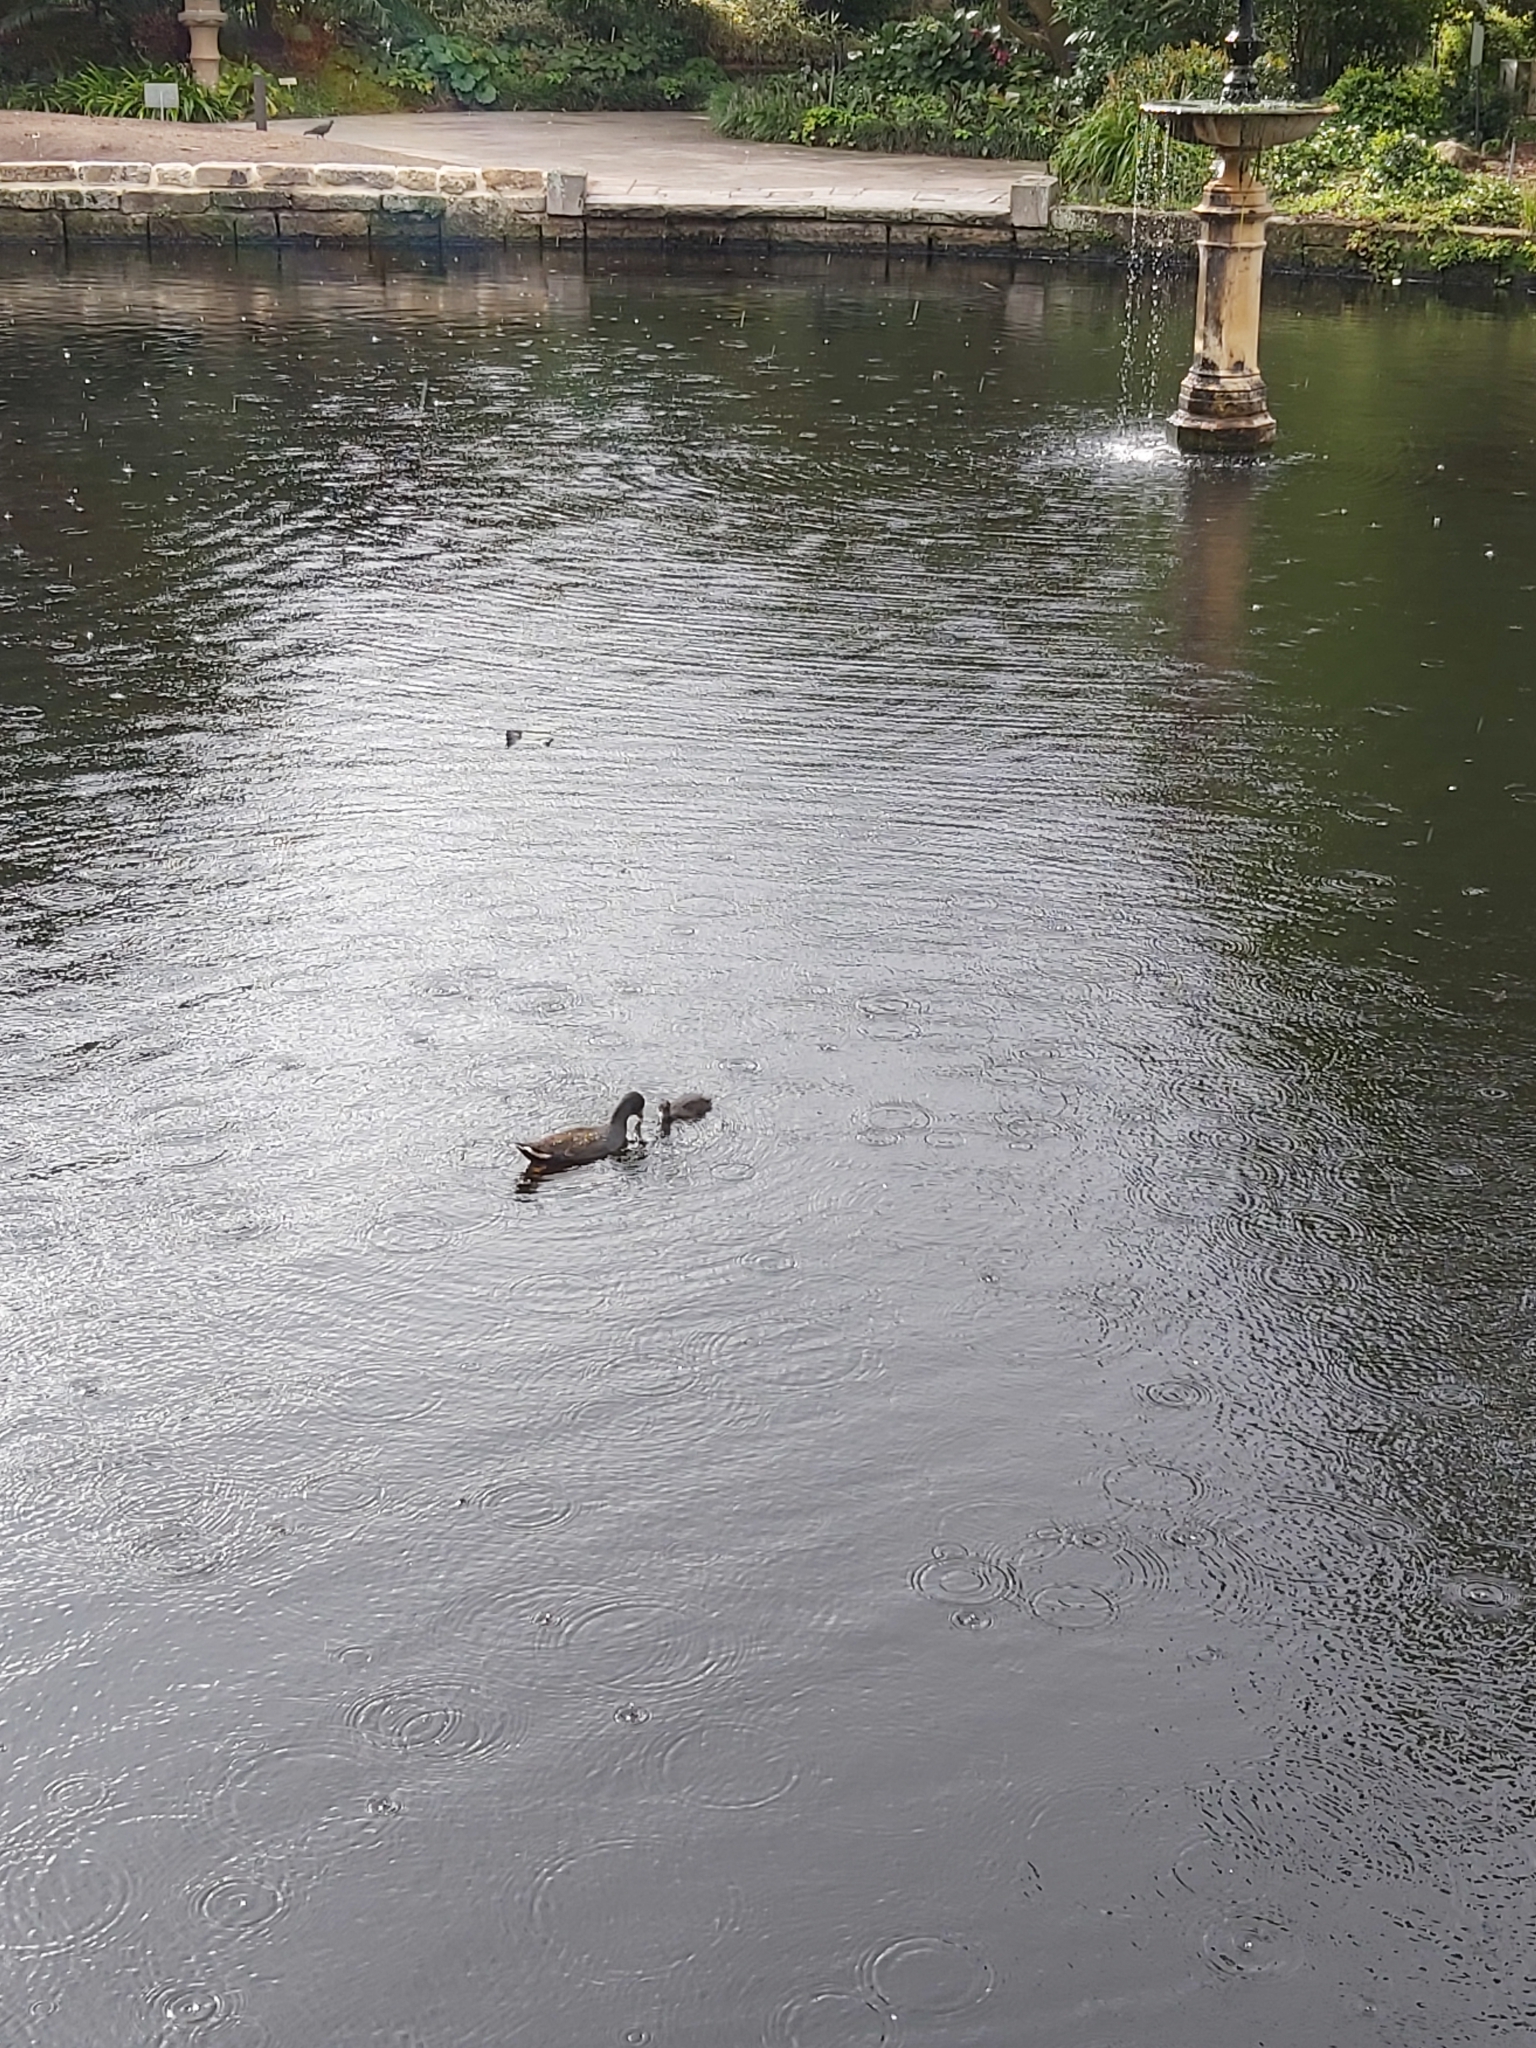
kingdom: Animalia
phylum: Chordata
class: Aves
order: Gruiformes
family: Rallidae
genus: Gallinula
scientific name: Gallinula tenebrosa
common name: Dusky moorhen
